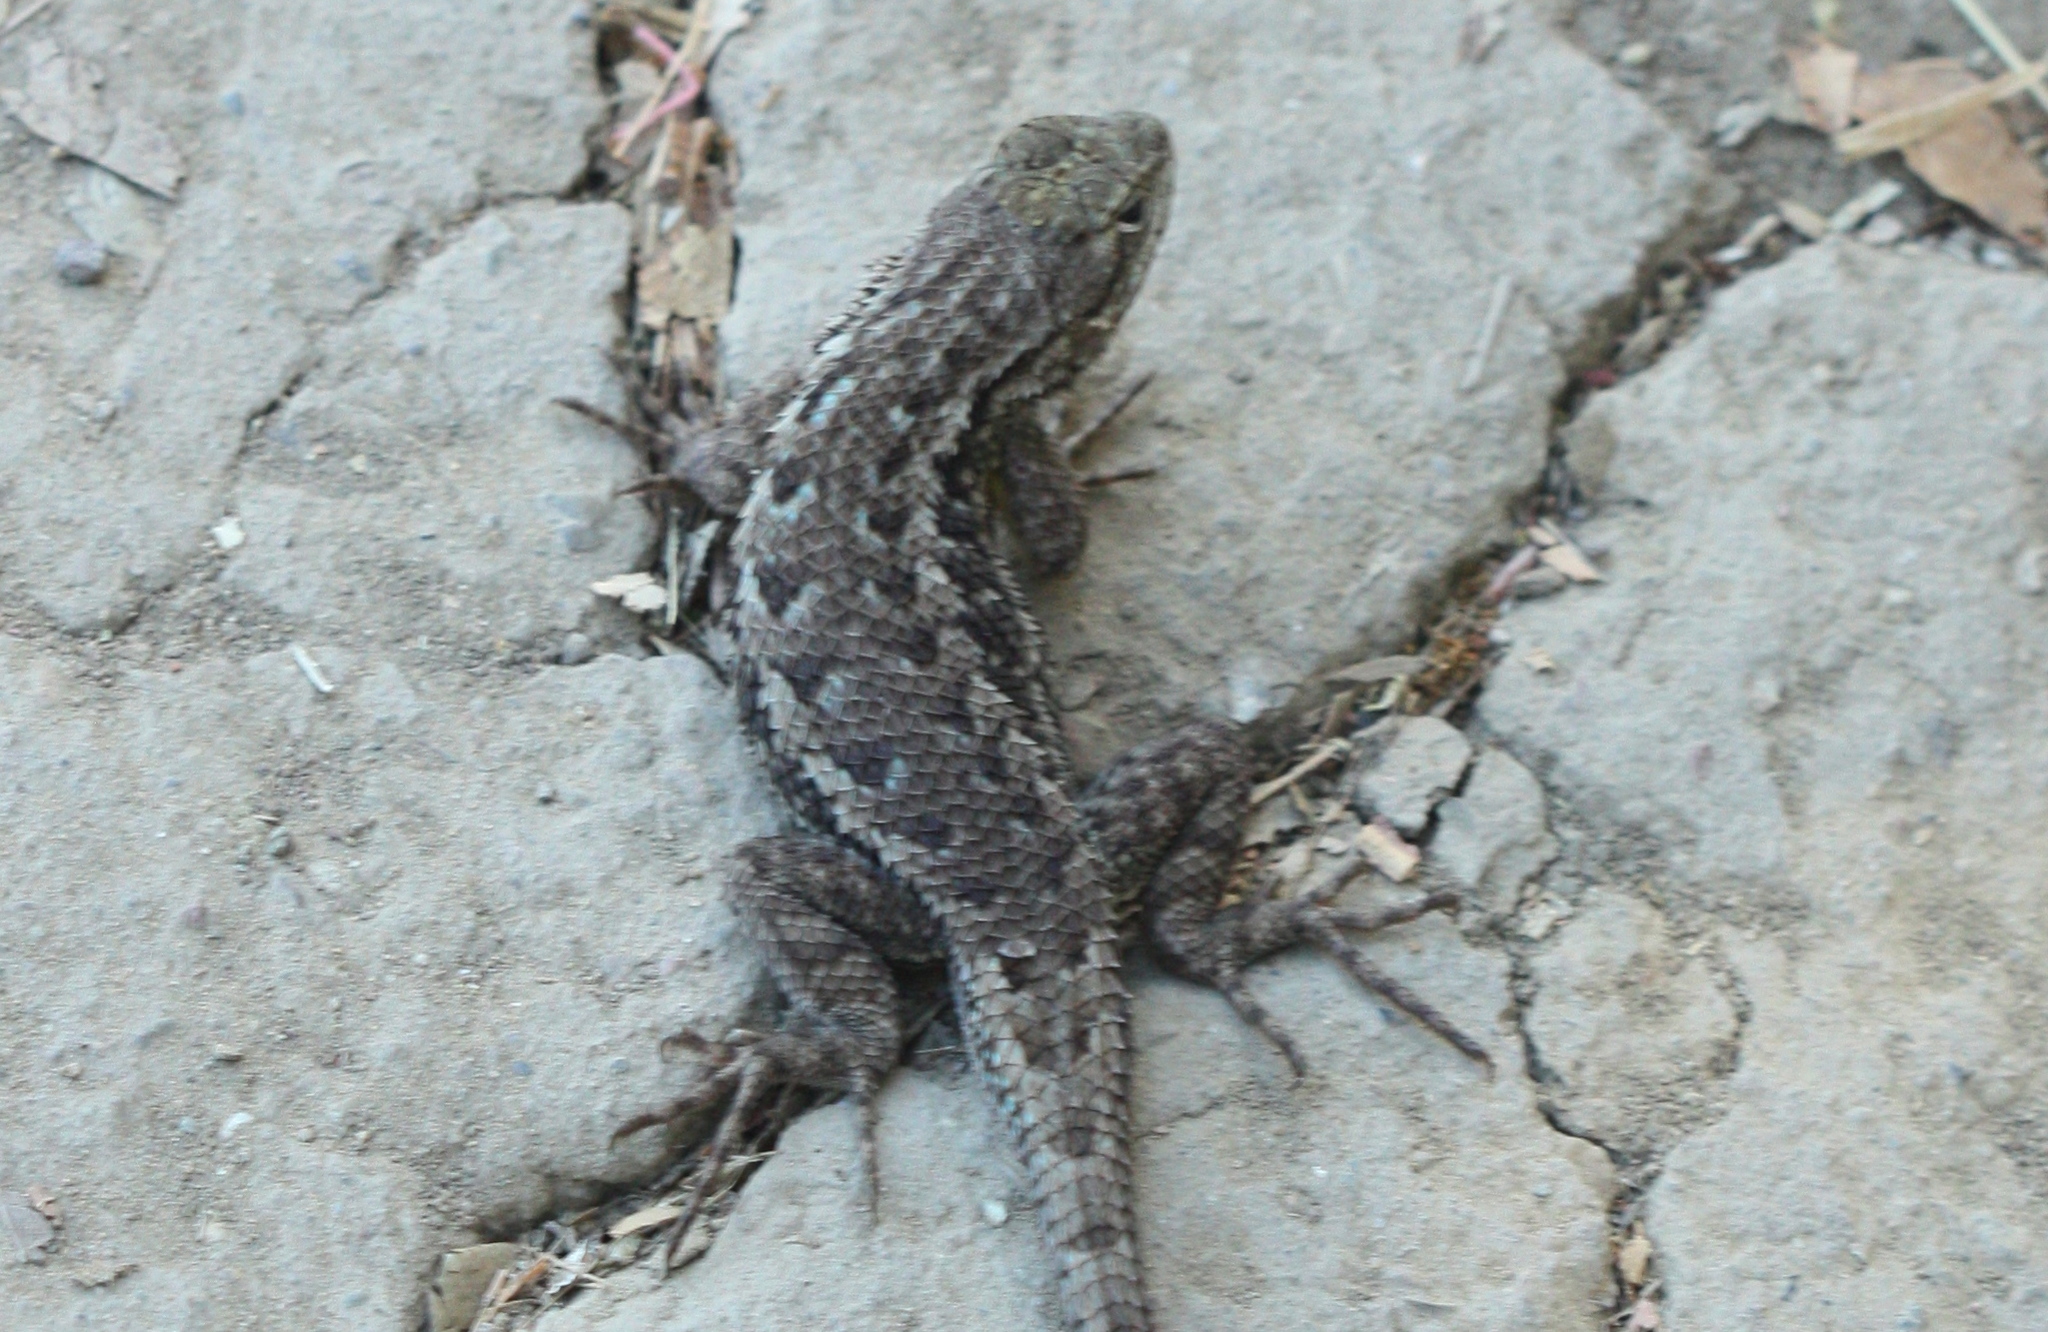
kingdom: Animalia
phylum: Chordata
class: Squamata
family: Phrynosomatidae
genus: Sceloporus
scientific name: Sceloporus occidentalis
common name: Western fence lizard
